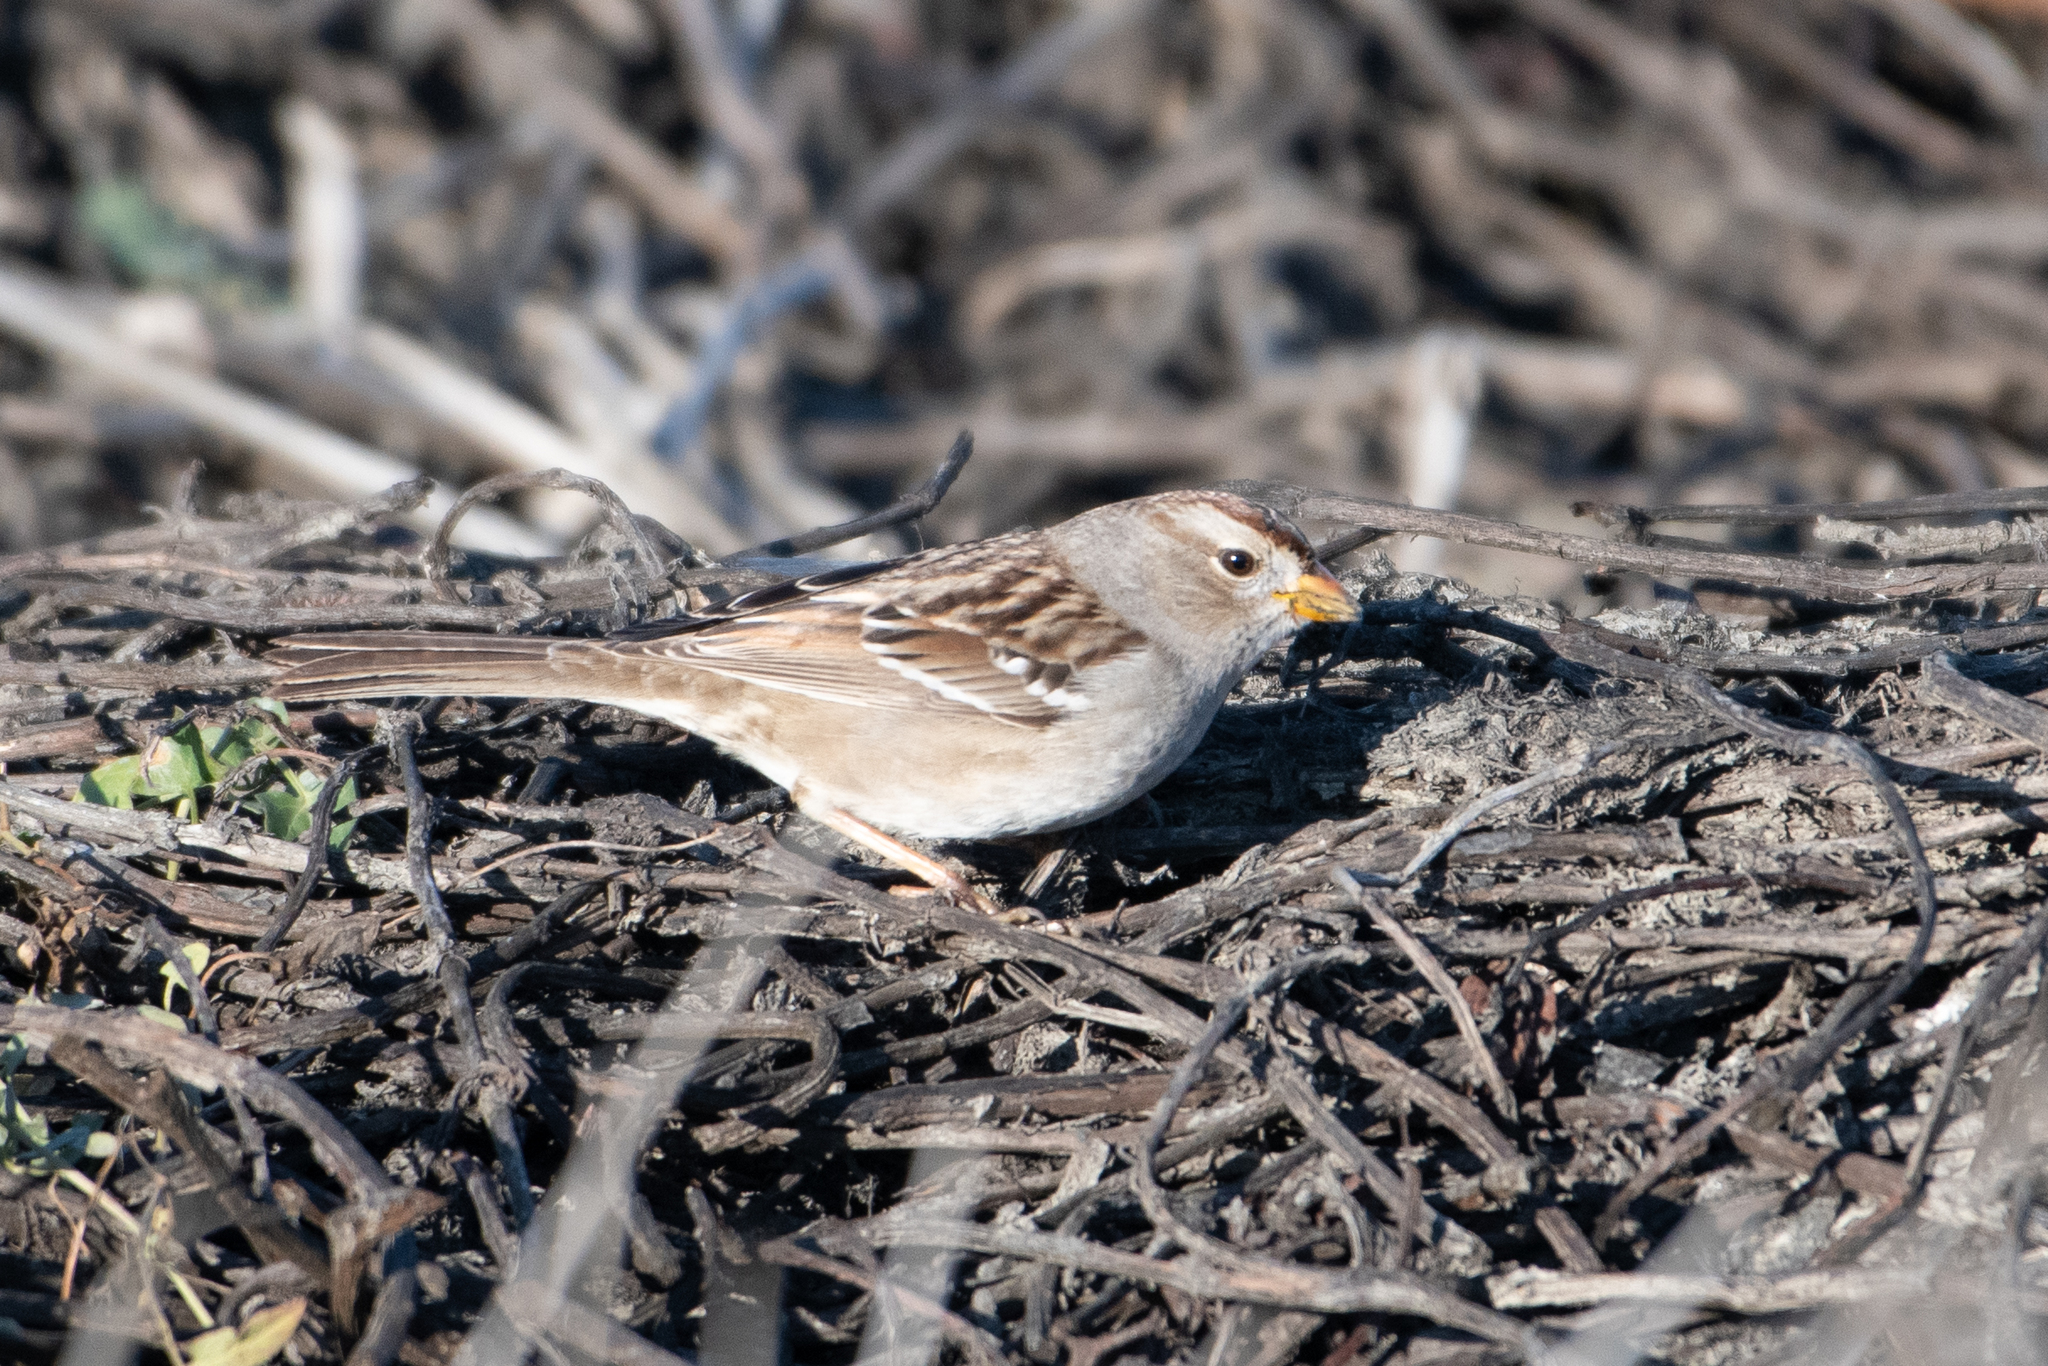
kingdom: Animalia
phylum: Chordata
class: Aves
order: Passeriformes
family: Passerellidae
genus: Zonotrichia
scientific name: Zonotrichia leucophrys
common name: White-crowned sparrow
